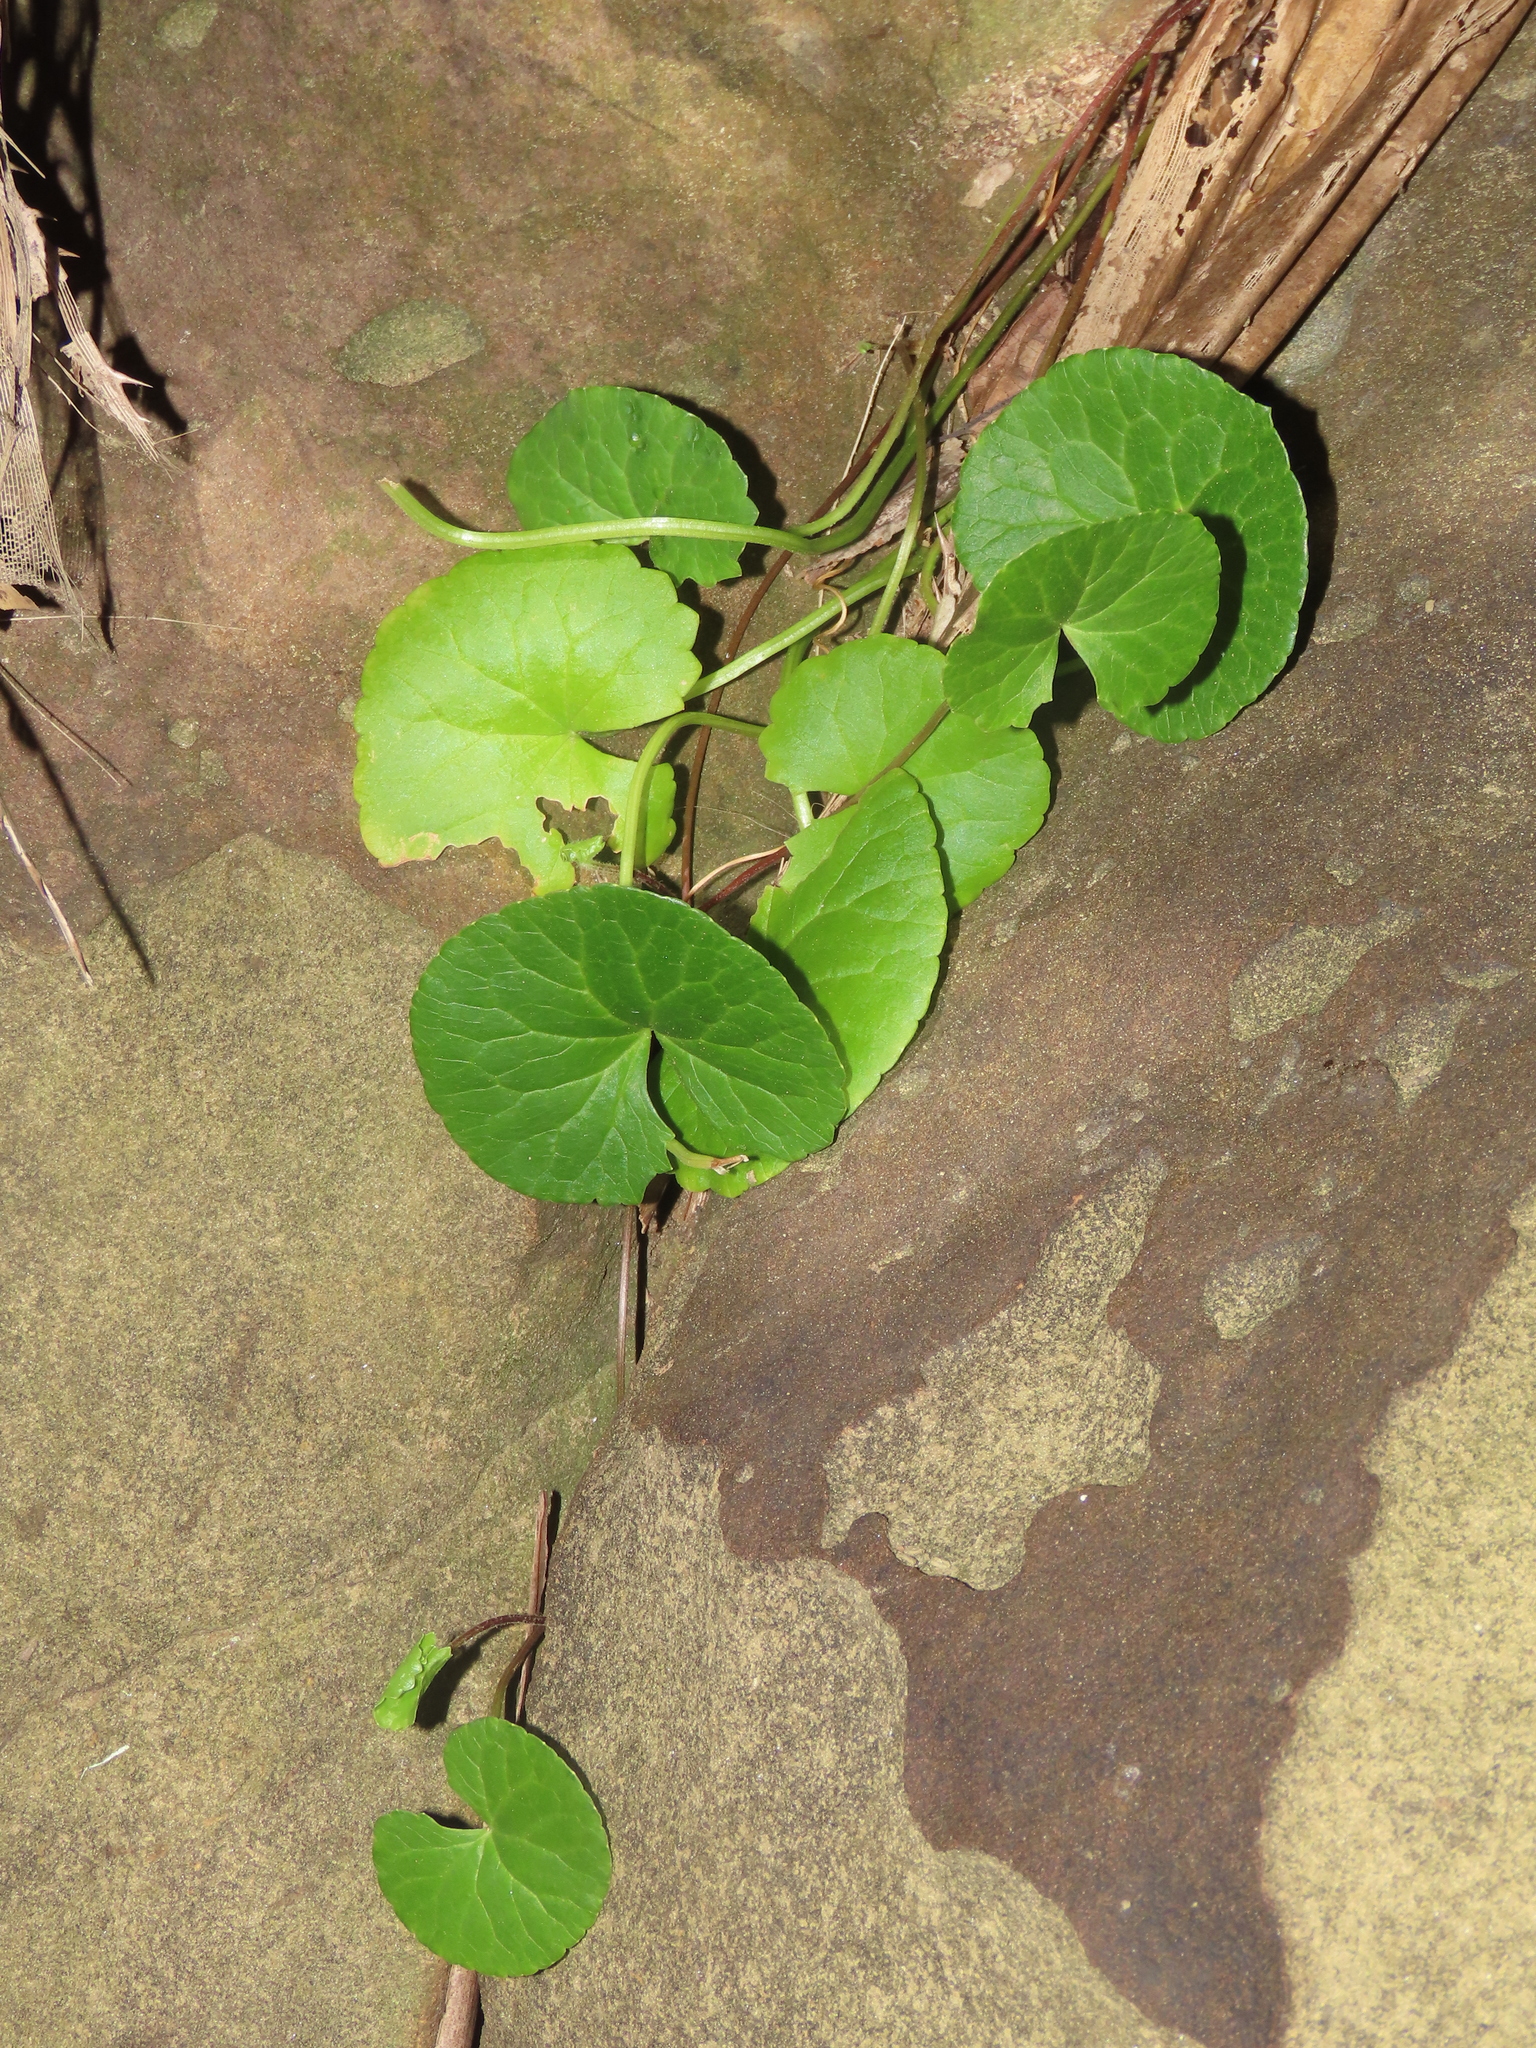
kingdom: Plantae
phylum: Tracheophyta
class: Magnoliopsida
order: Apiales
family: Apiaceae
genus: Centella
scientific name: Centella asiatica
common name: Spadeleaf
